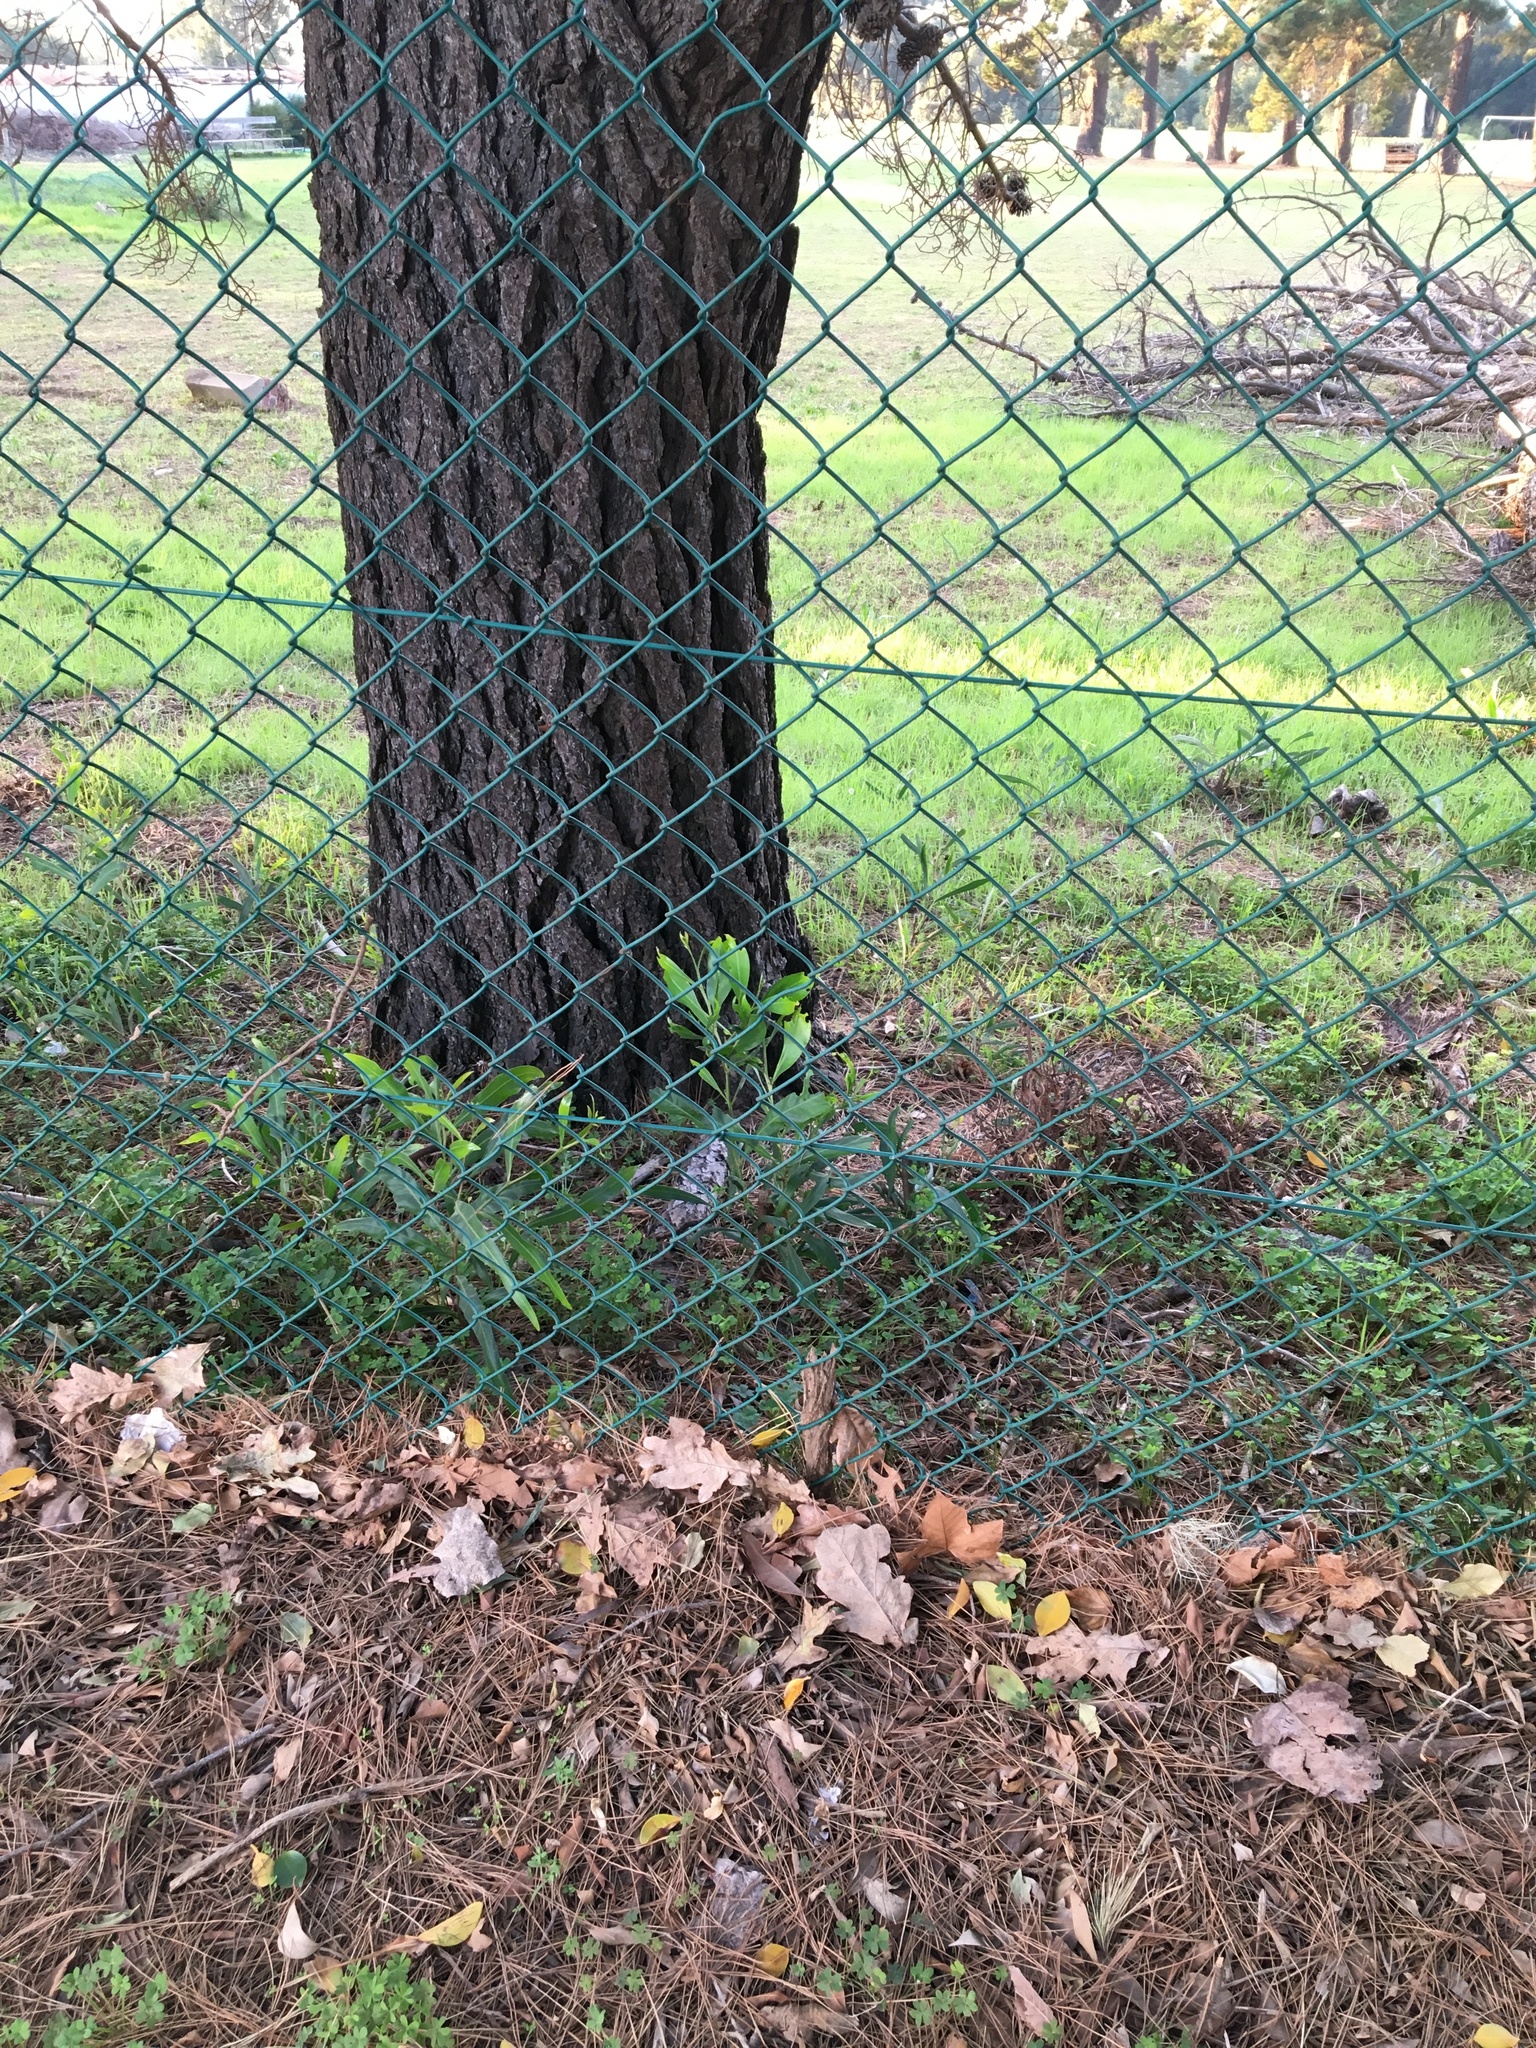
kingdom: Plantae
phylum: Tracheophyta
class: Magnoliopsida
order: Fabales
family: Fabaceae
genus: Acacia
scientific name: Acacia saligna
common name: Orange wattle
